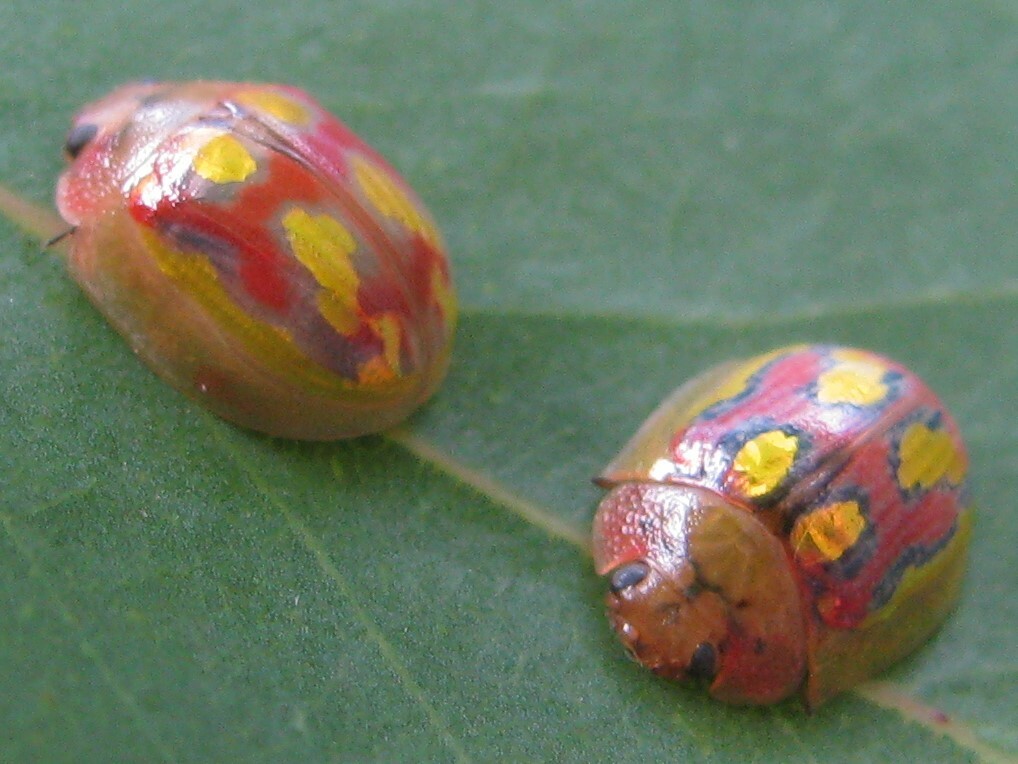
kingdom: Animalia
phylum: Arthropoda
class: Insecta
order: Coleoptera
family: Chrysomelidae
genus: Paropsisterna
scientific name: Paropsisterna
